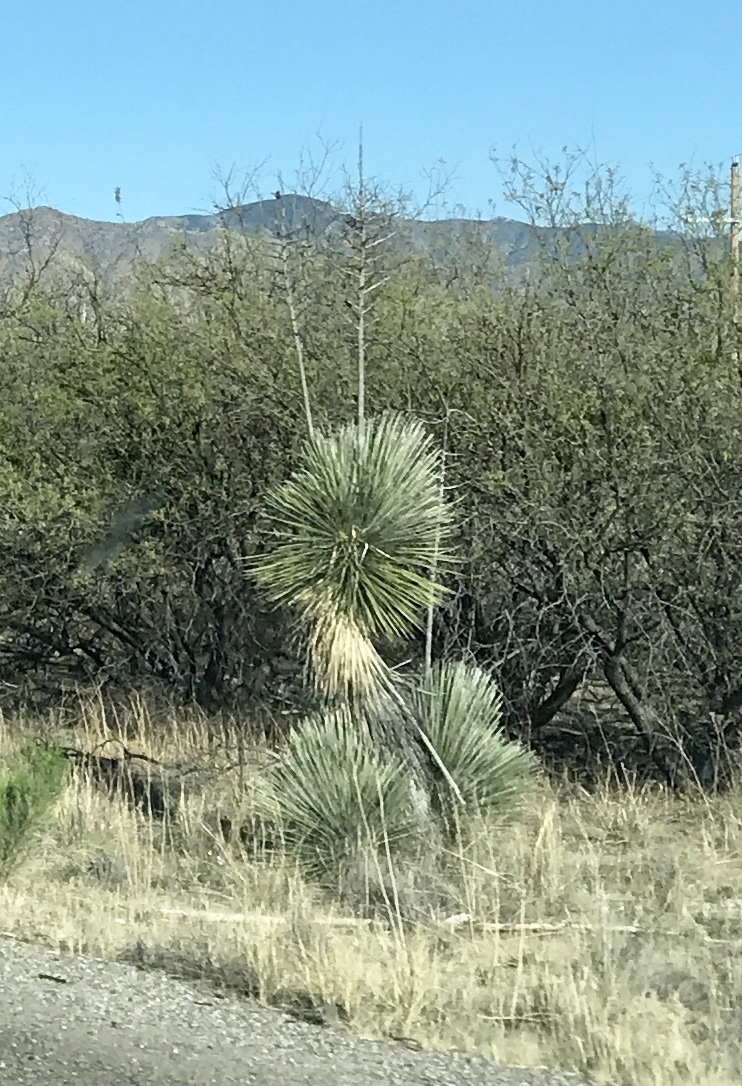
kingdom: Plantae
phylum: Tracheophyta
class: Liliopsida
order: Asparagales
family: Asparagaceae
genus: Yucca
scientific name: Yucca elata
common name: Palmella
